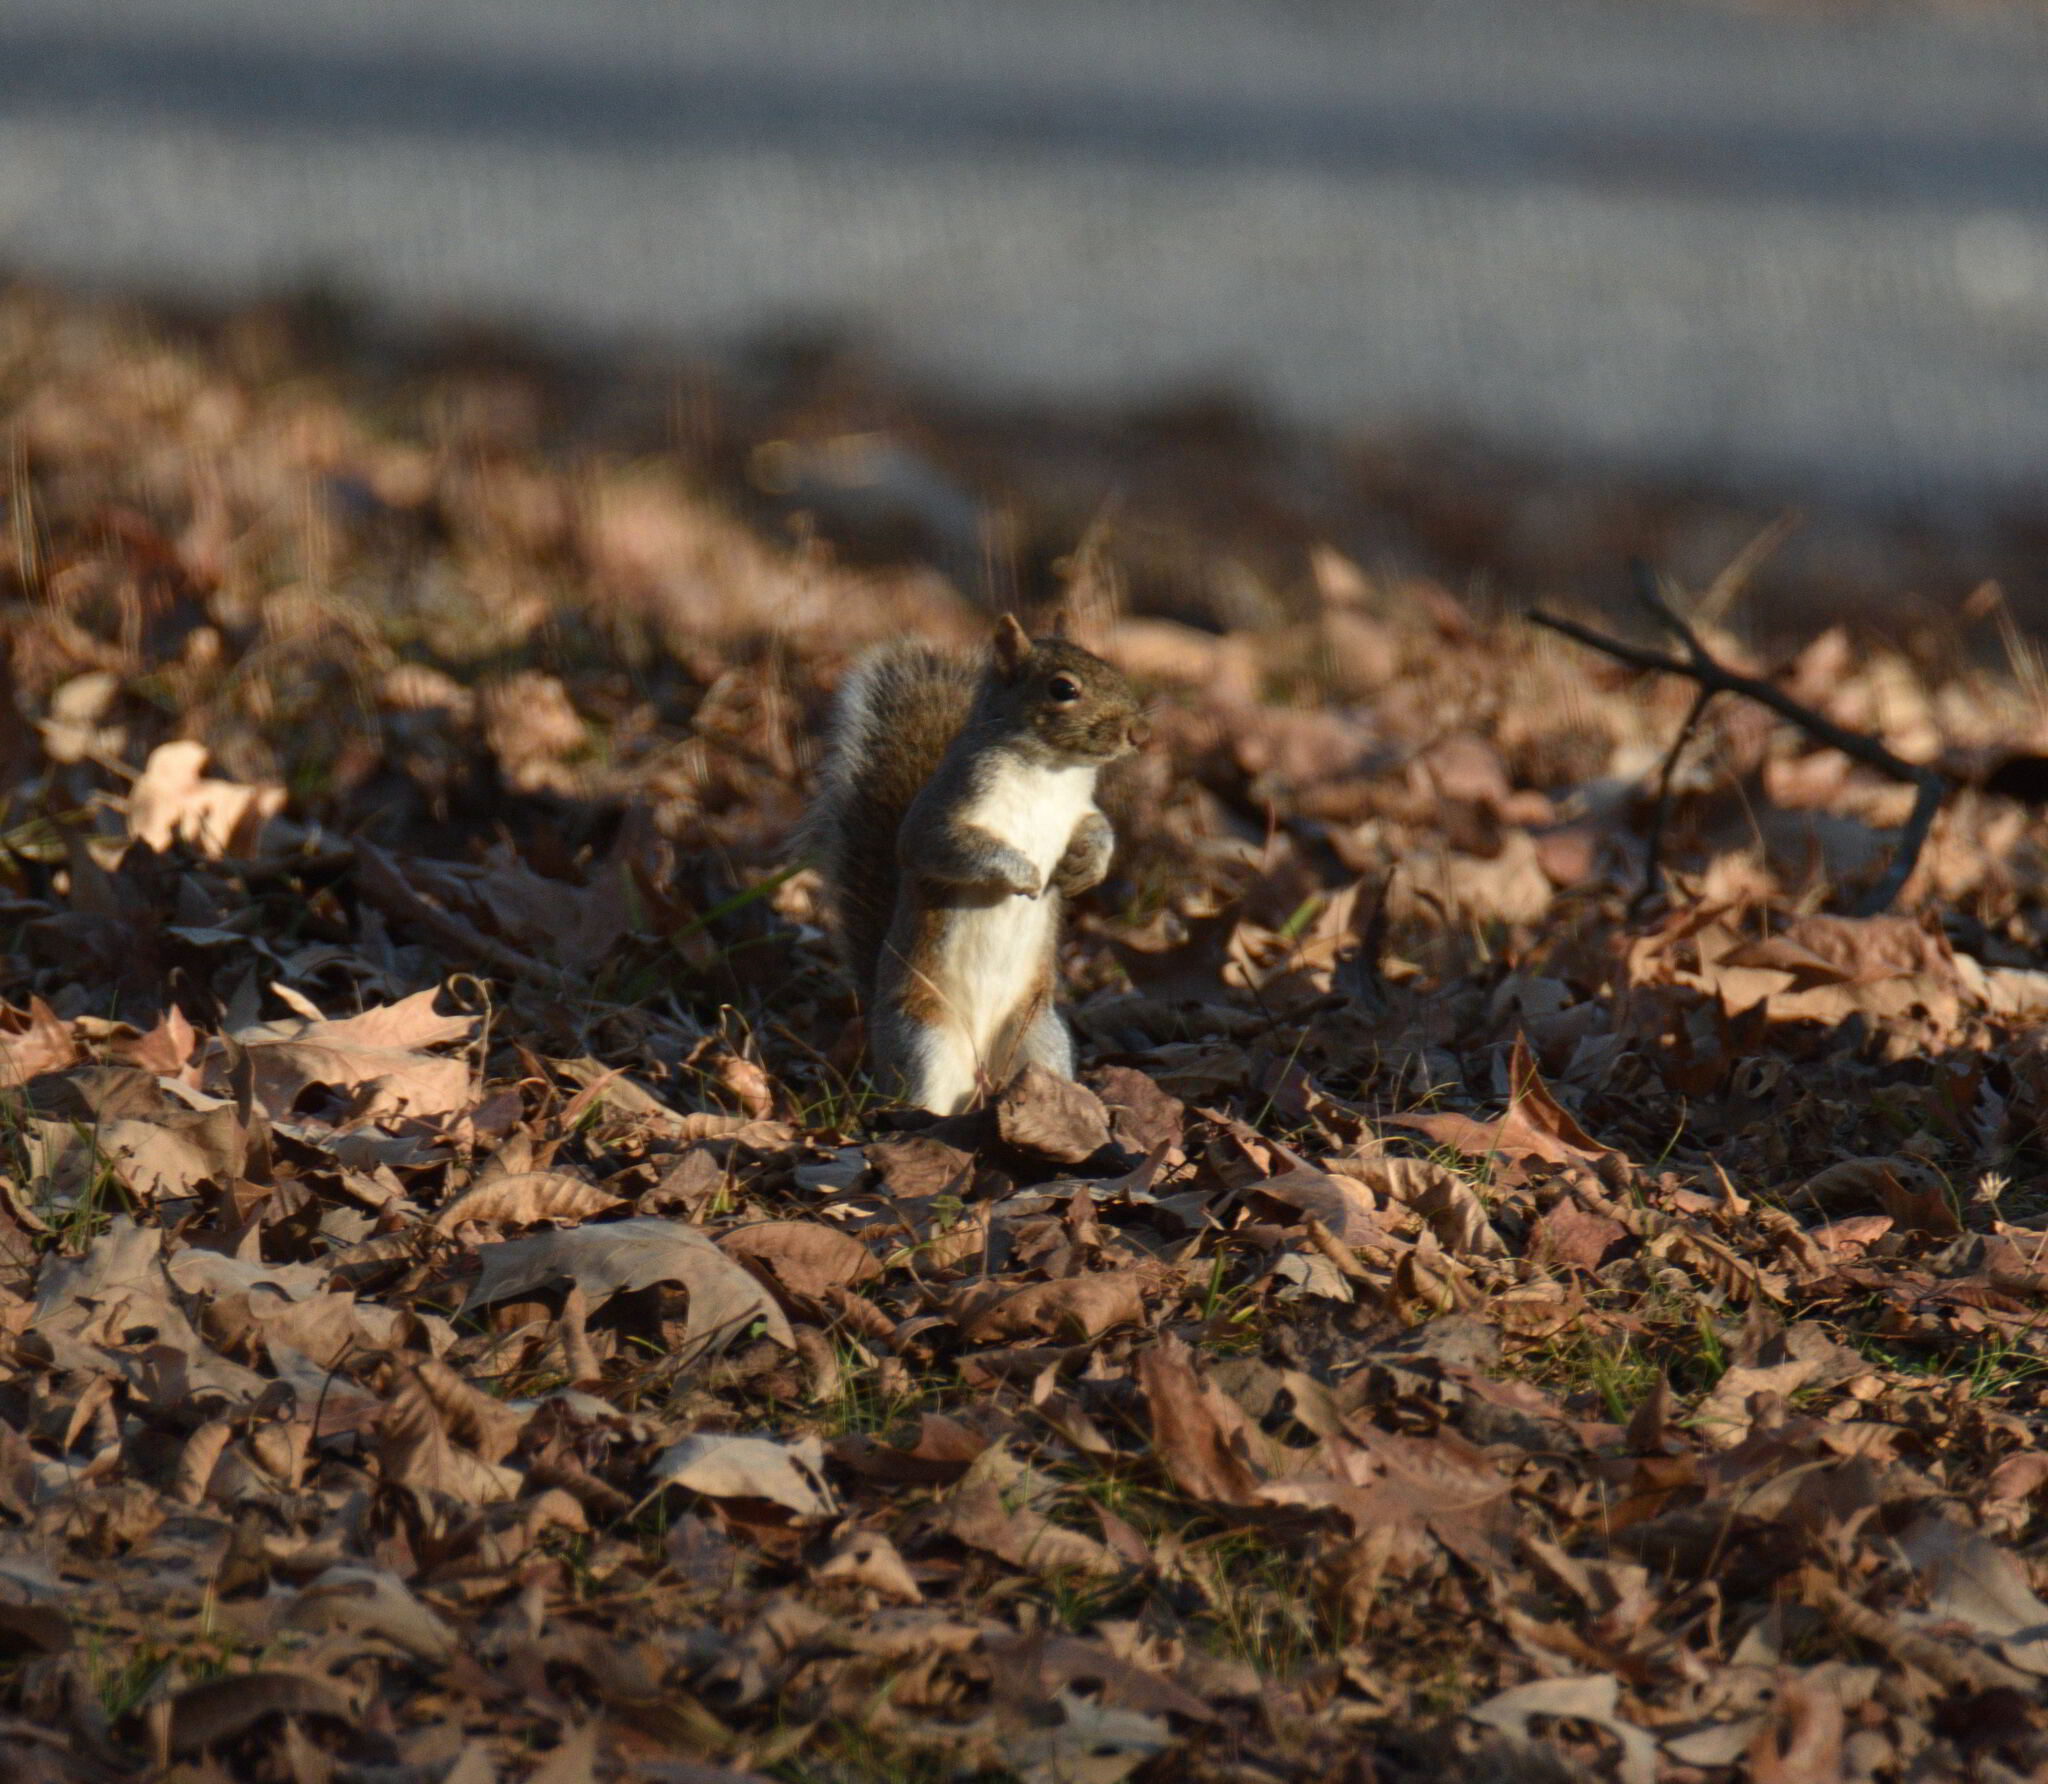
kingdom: Animalia
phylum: Chordata
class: Mammalia
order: Rodentia
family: Sciuridae
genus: Sciurus
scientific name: Sciurus carolinensis
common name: Eastern gray squirrel
